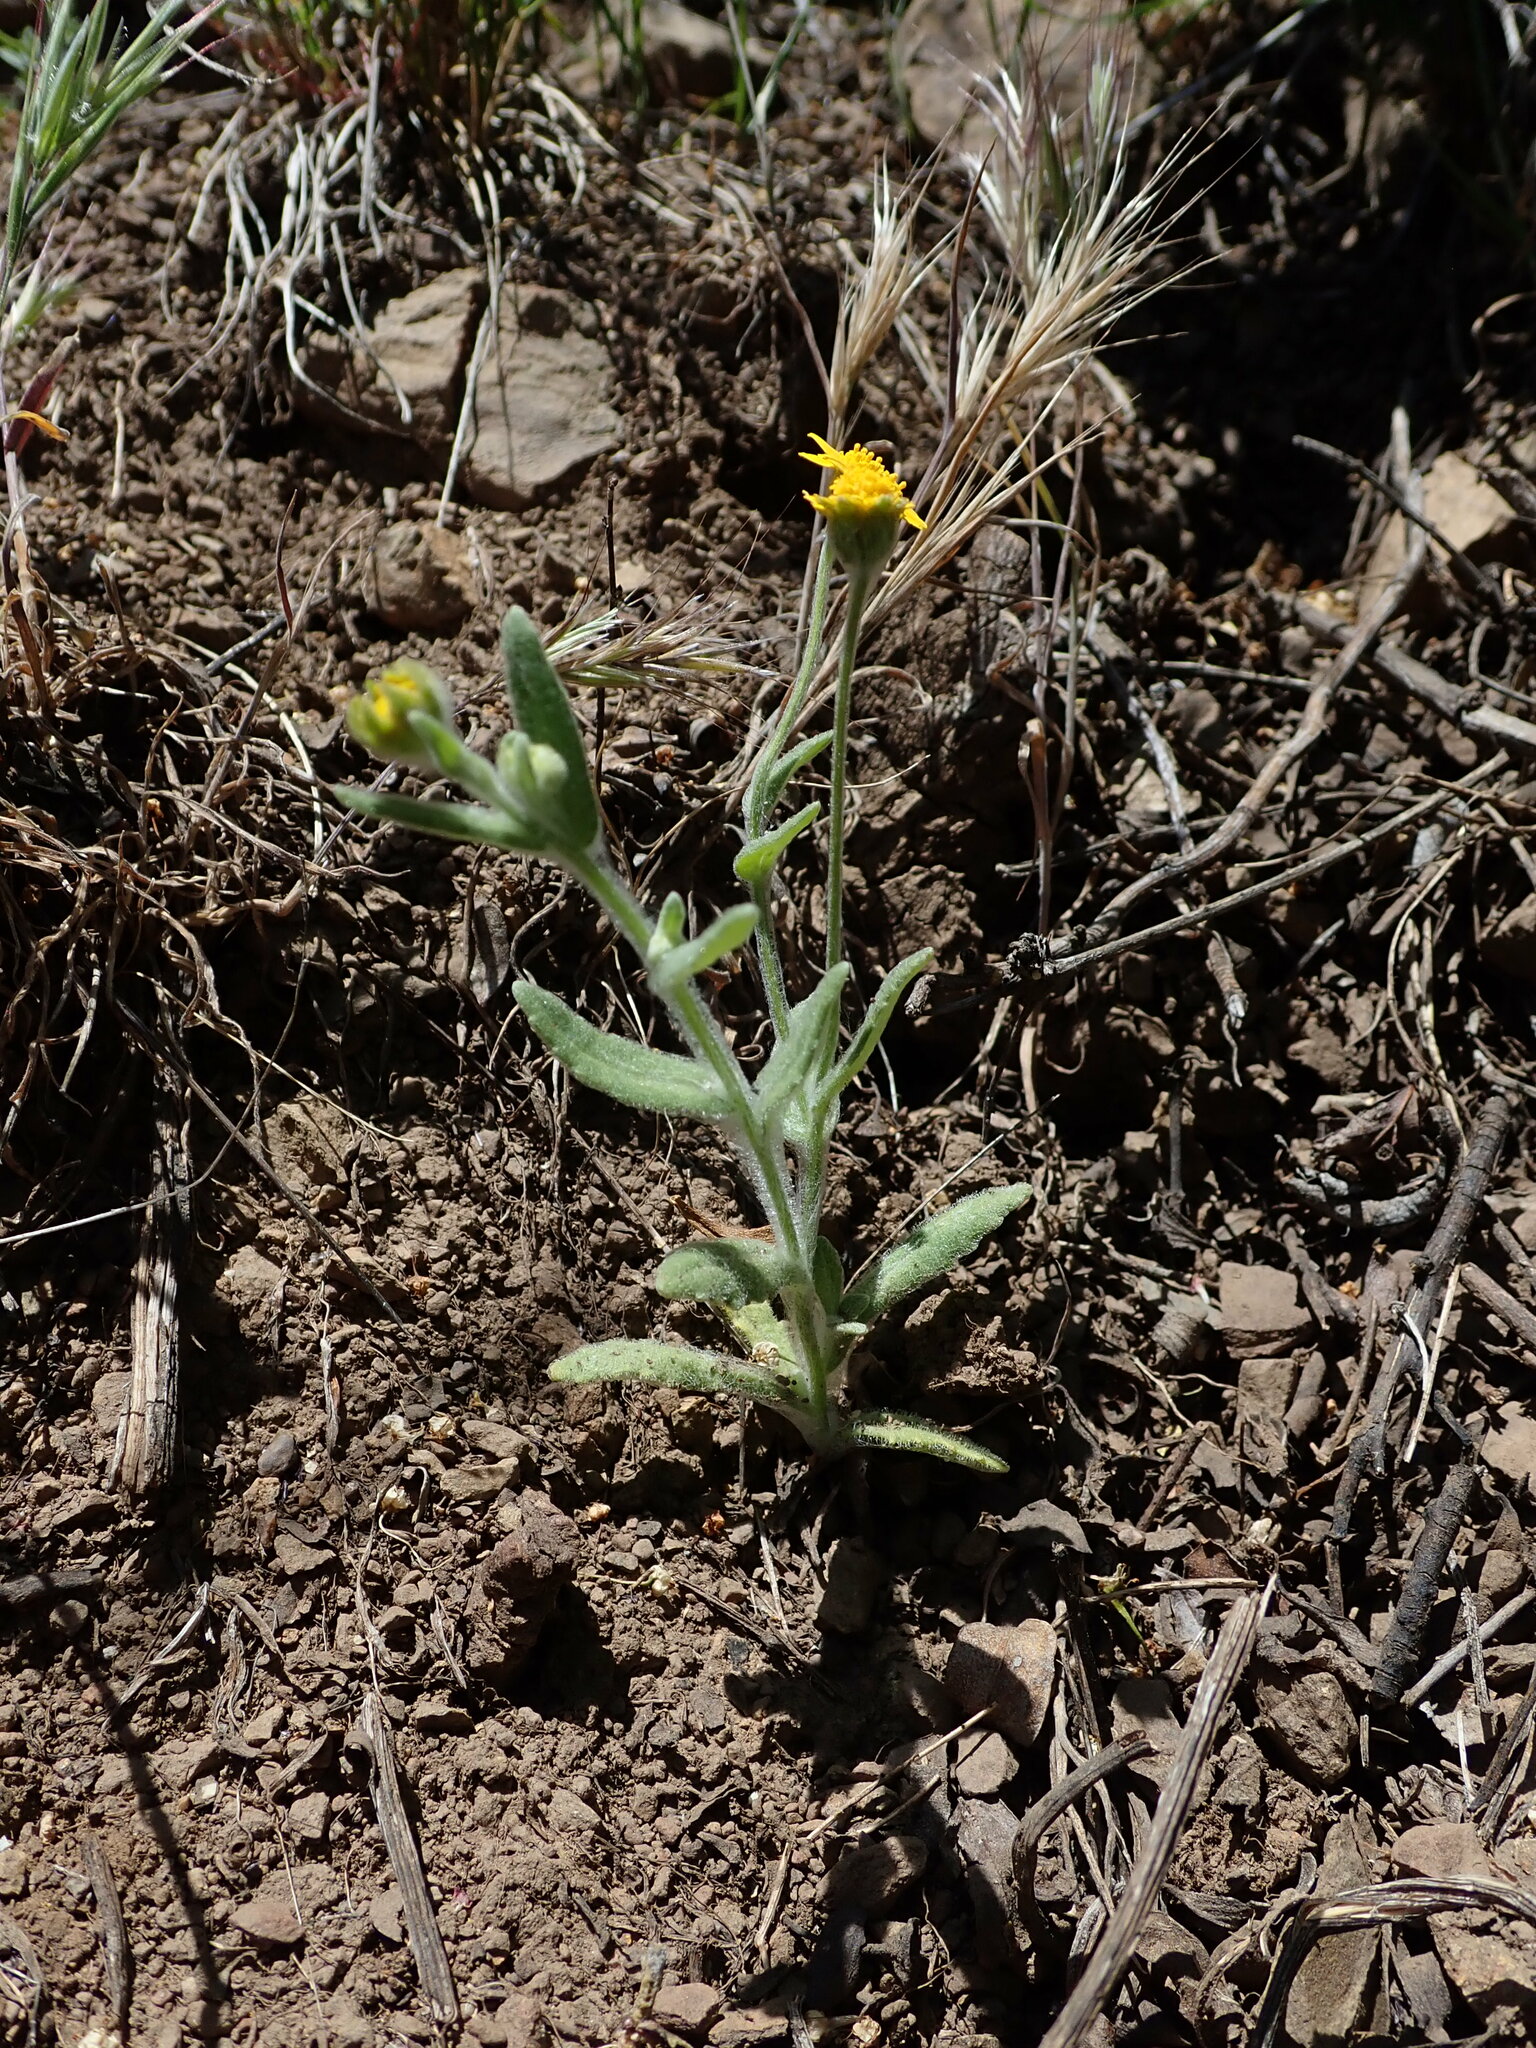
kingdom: Plantae
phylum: Tracheophyta
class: Magnoliopsida
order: Asterales
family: Asteraceae
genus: Monolopia
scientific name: Monolopia gracilens
